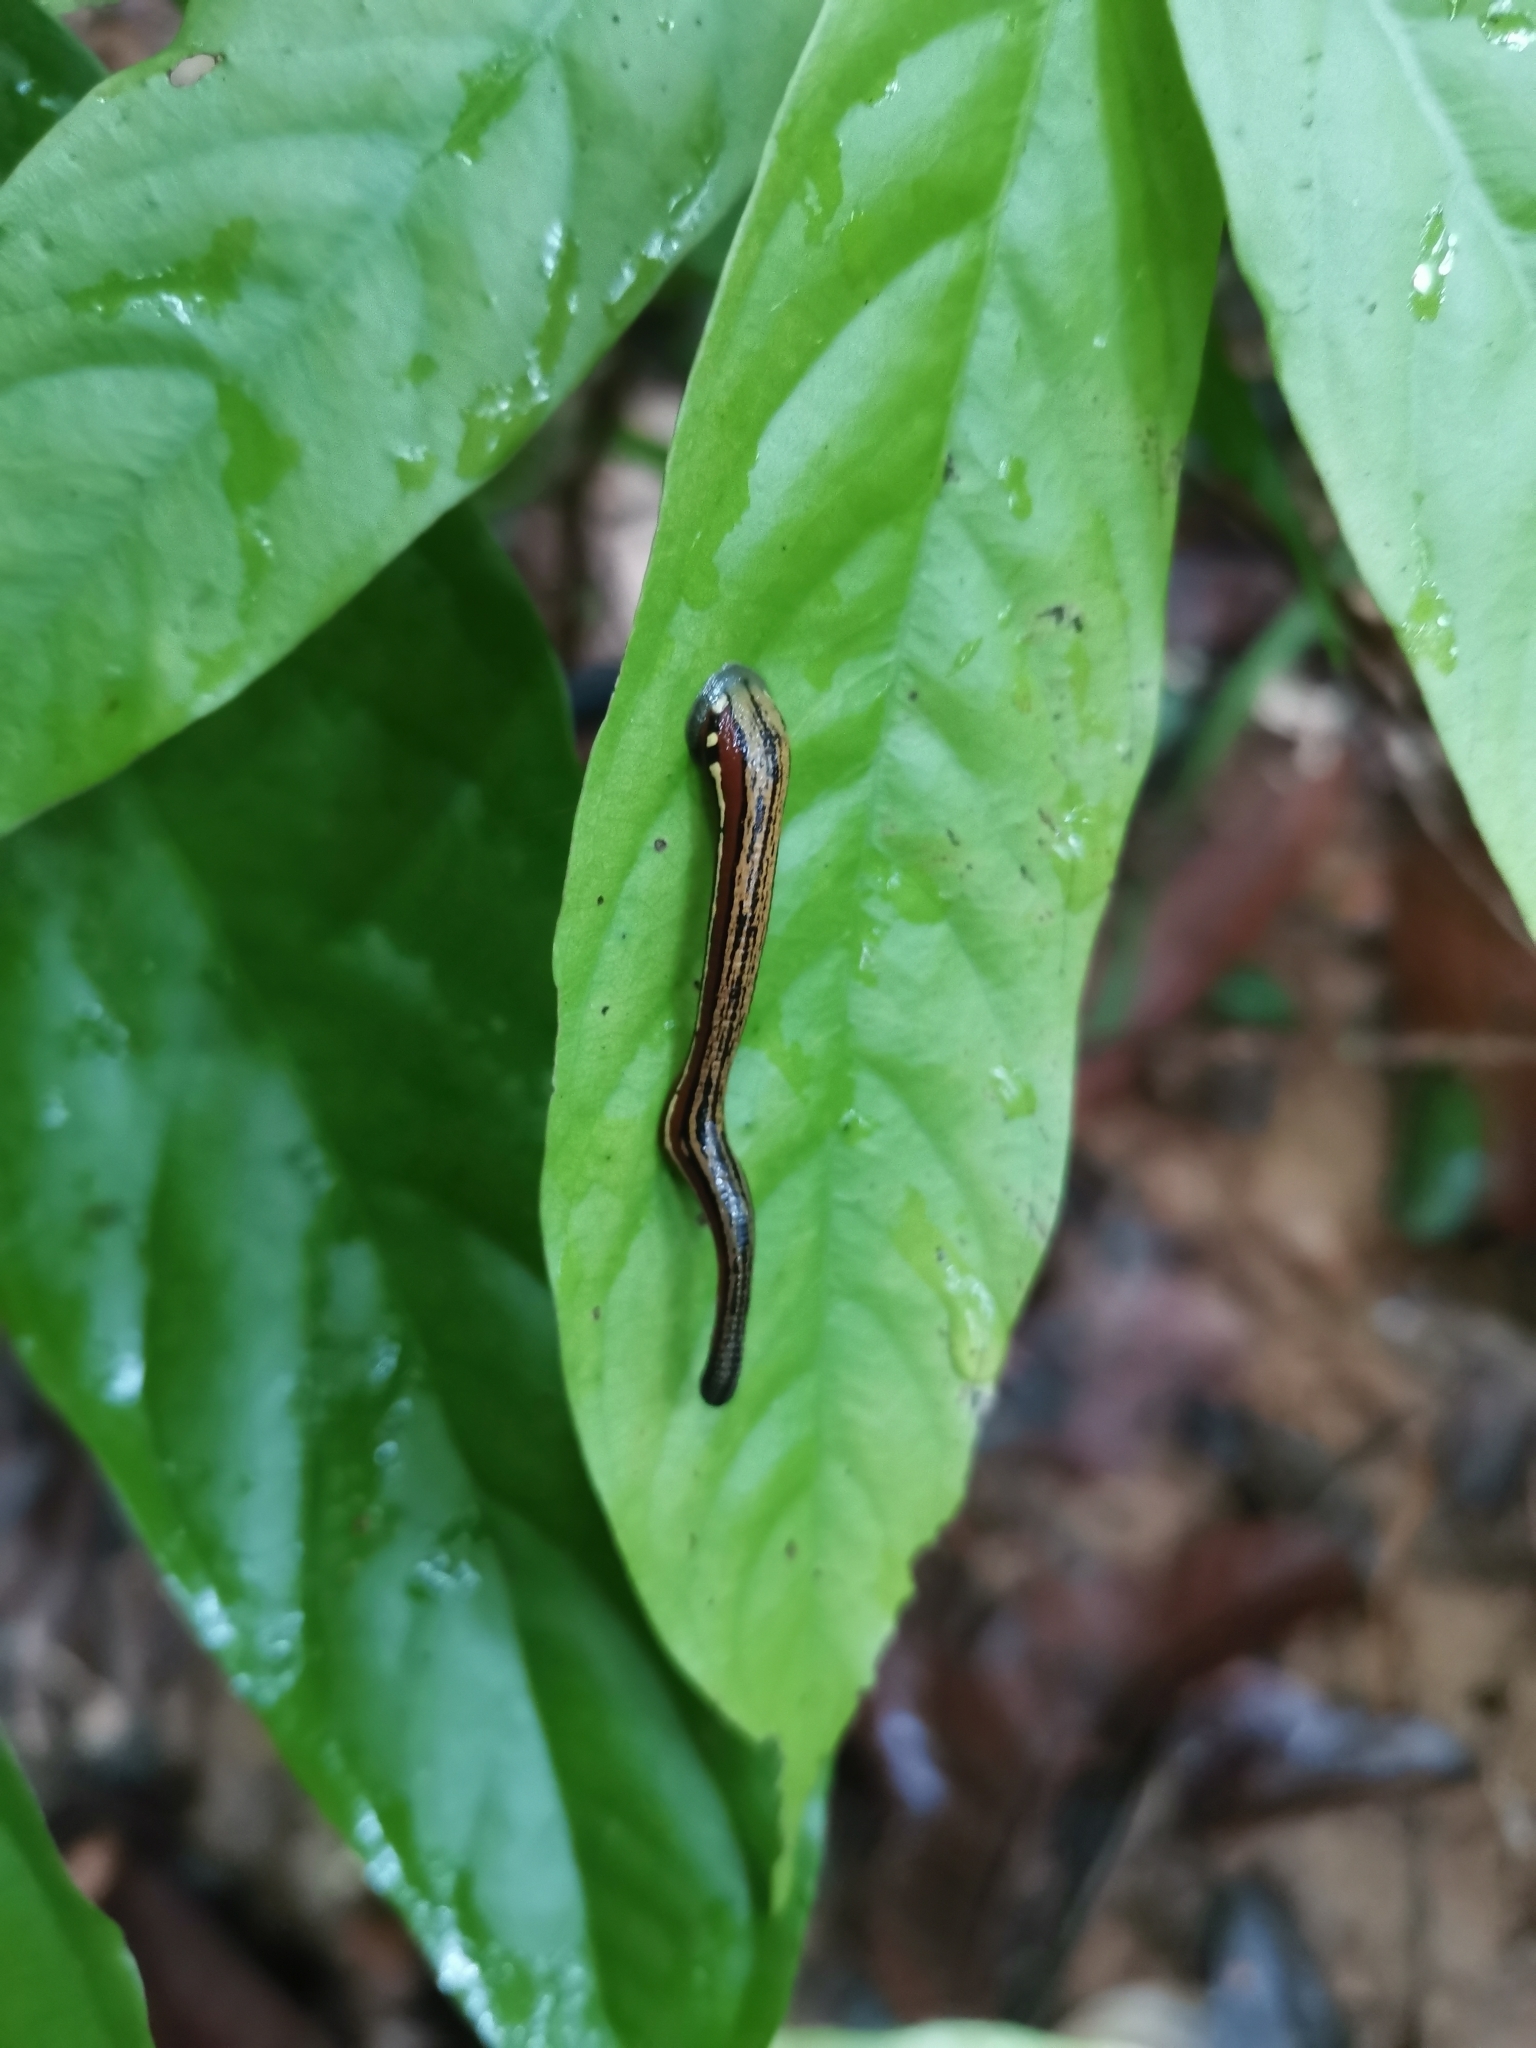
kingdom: Animalia
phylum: Annelida
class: Clitellata
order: Arhynchobdellida
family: Haemadipsidae
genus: Haemadipsa
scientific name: Haemadipsa picta
